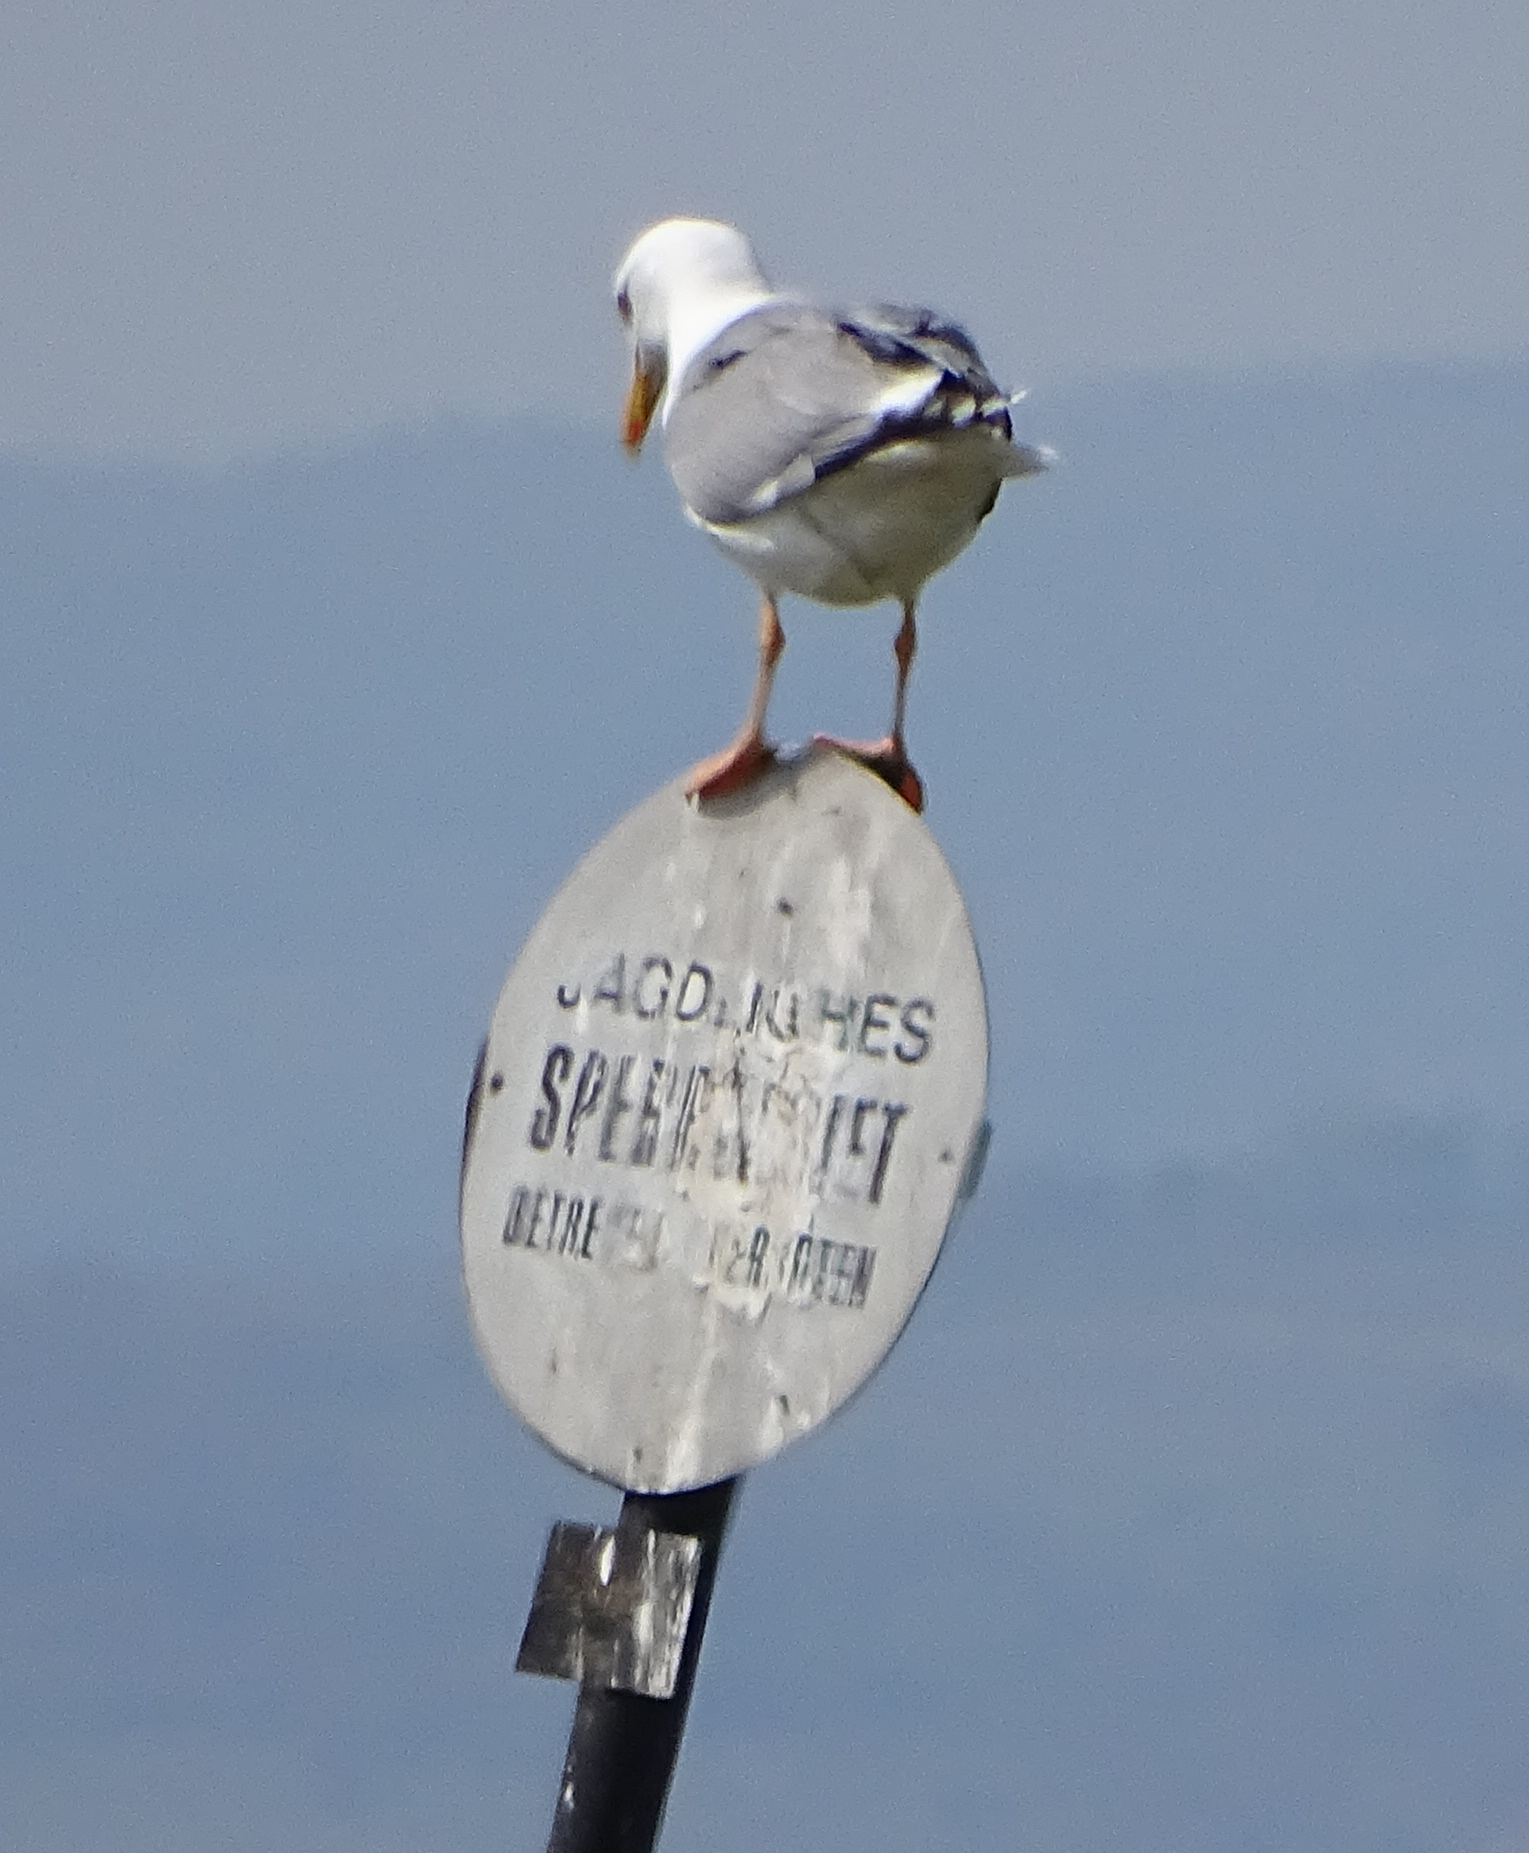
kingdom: Animalia
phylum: Chordata
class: Aves
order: Charadriiformes
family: Laridae
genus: Larus
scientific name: Larus michahellis
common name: Yellow-legged gull
